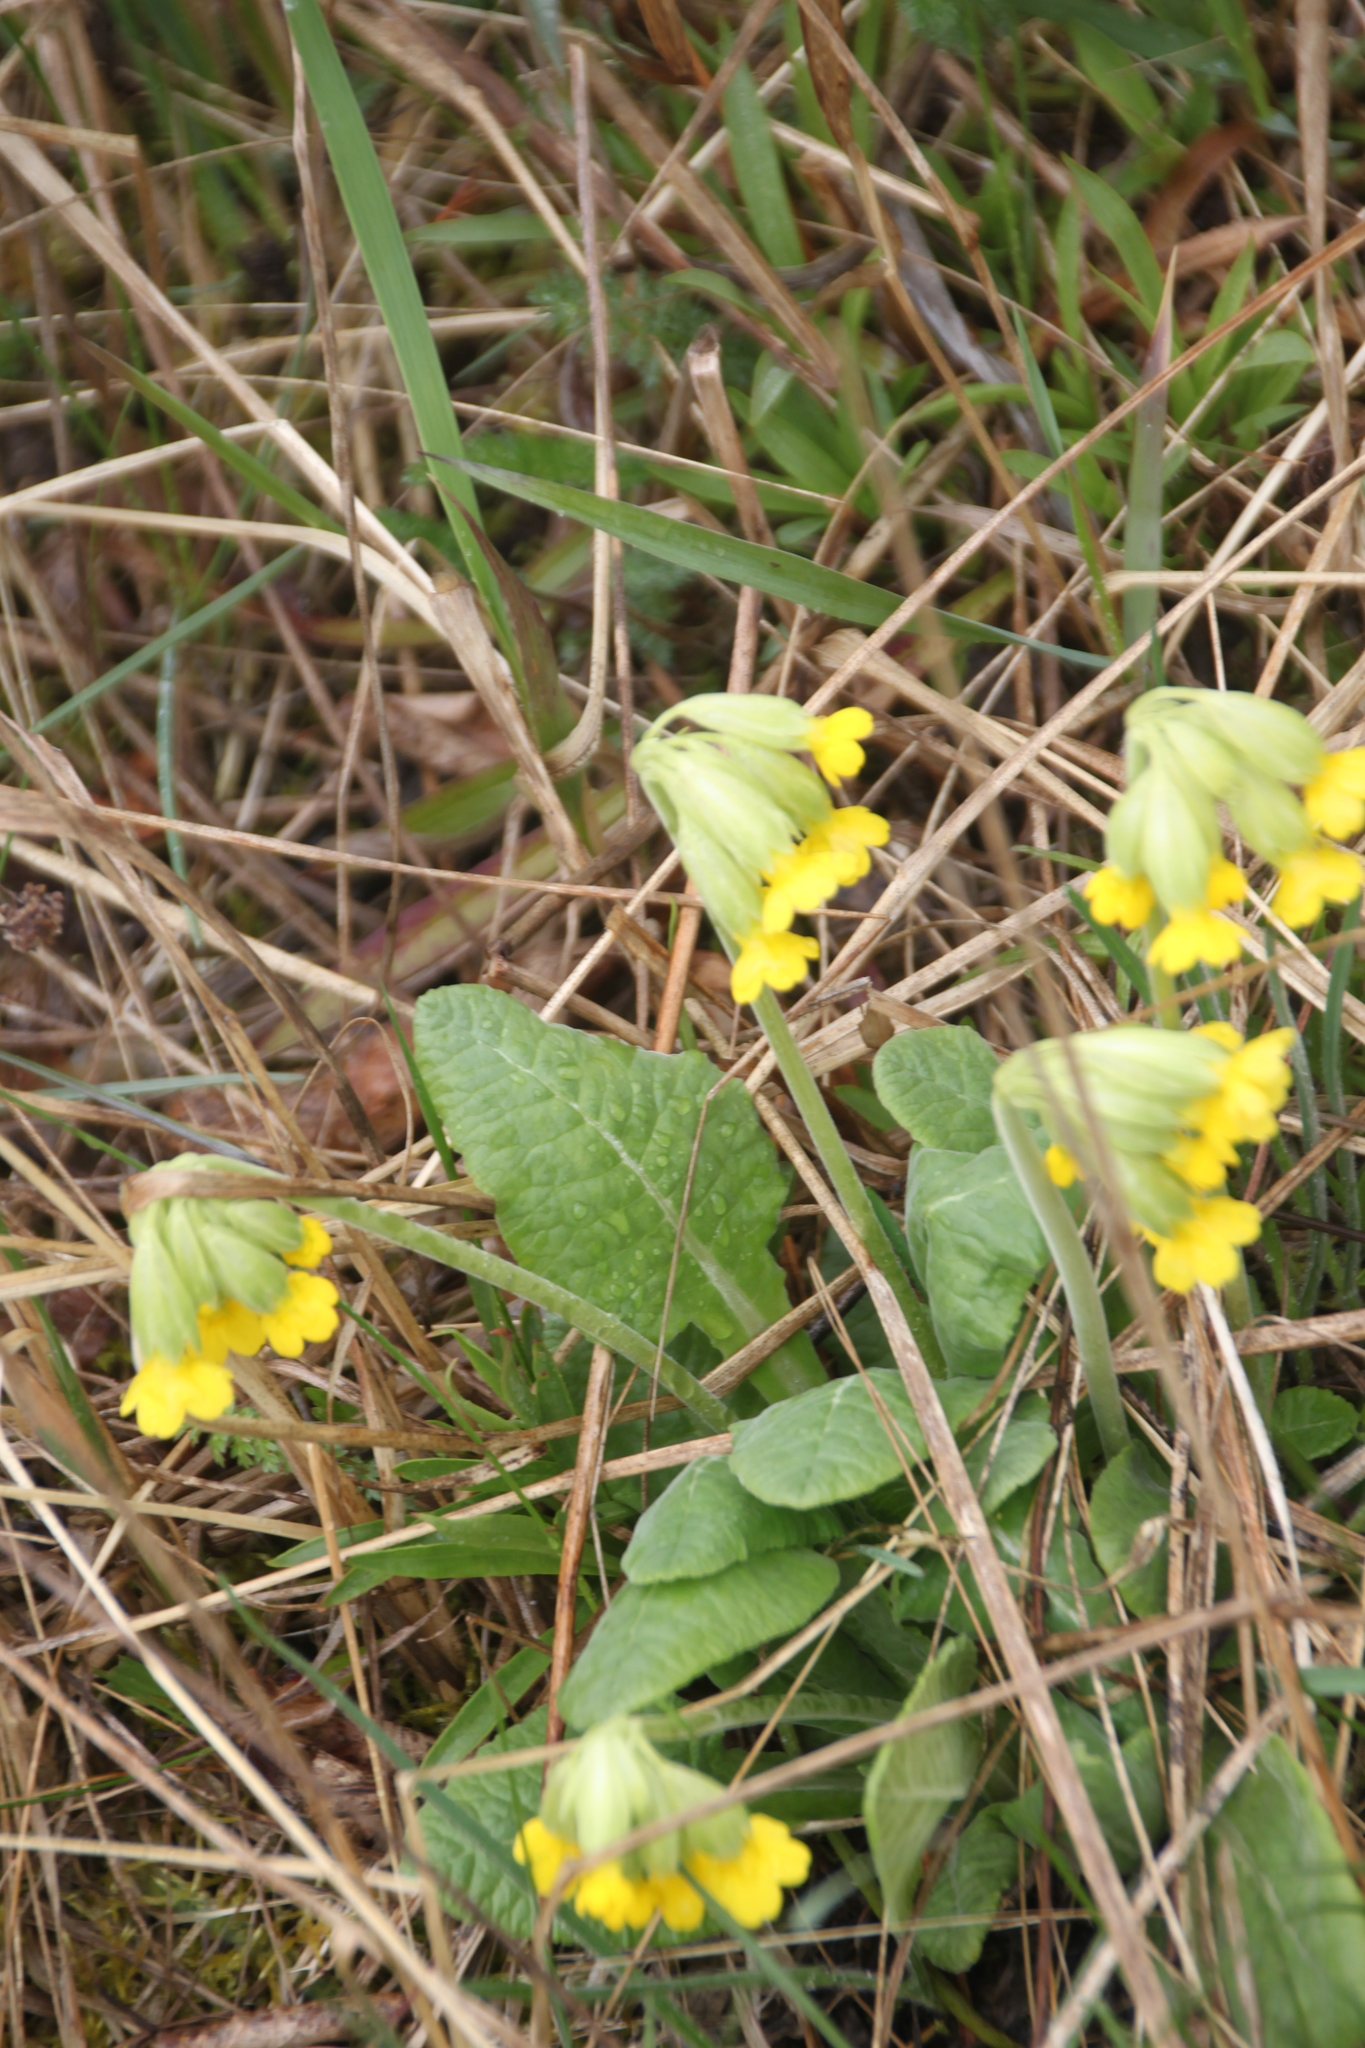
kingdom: Plantae
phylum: Tracheophyta
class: Magnoliopsida
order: Ericales
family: Primulaceae
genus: Primula
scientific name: Primula veris
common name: Cowslip
